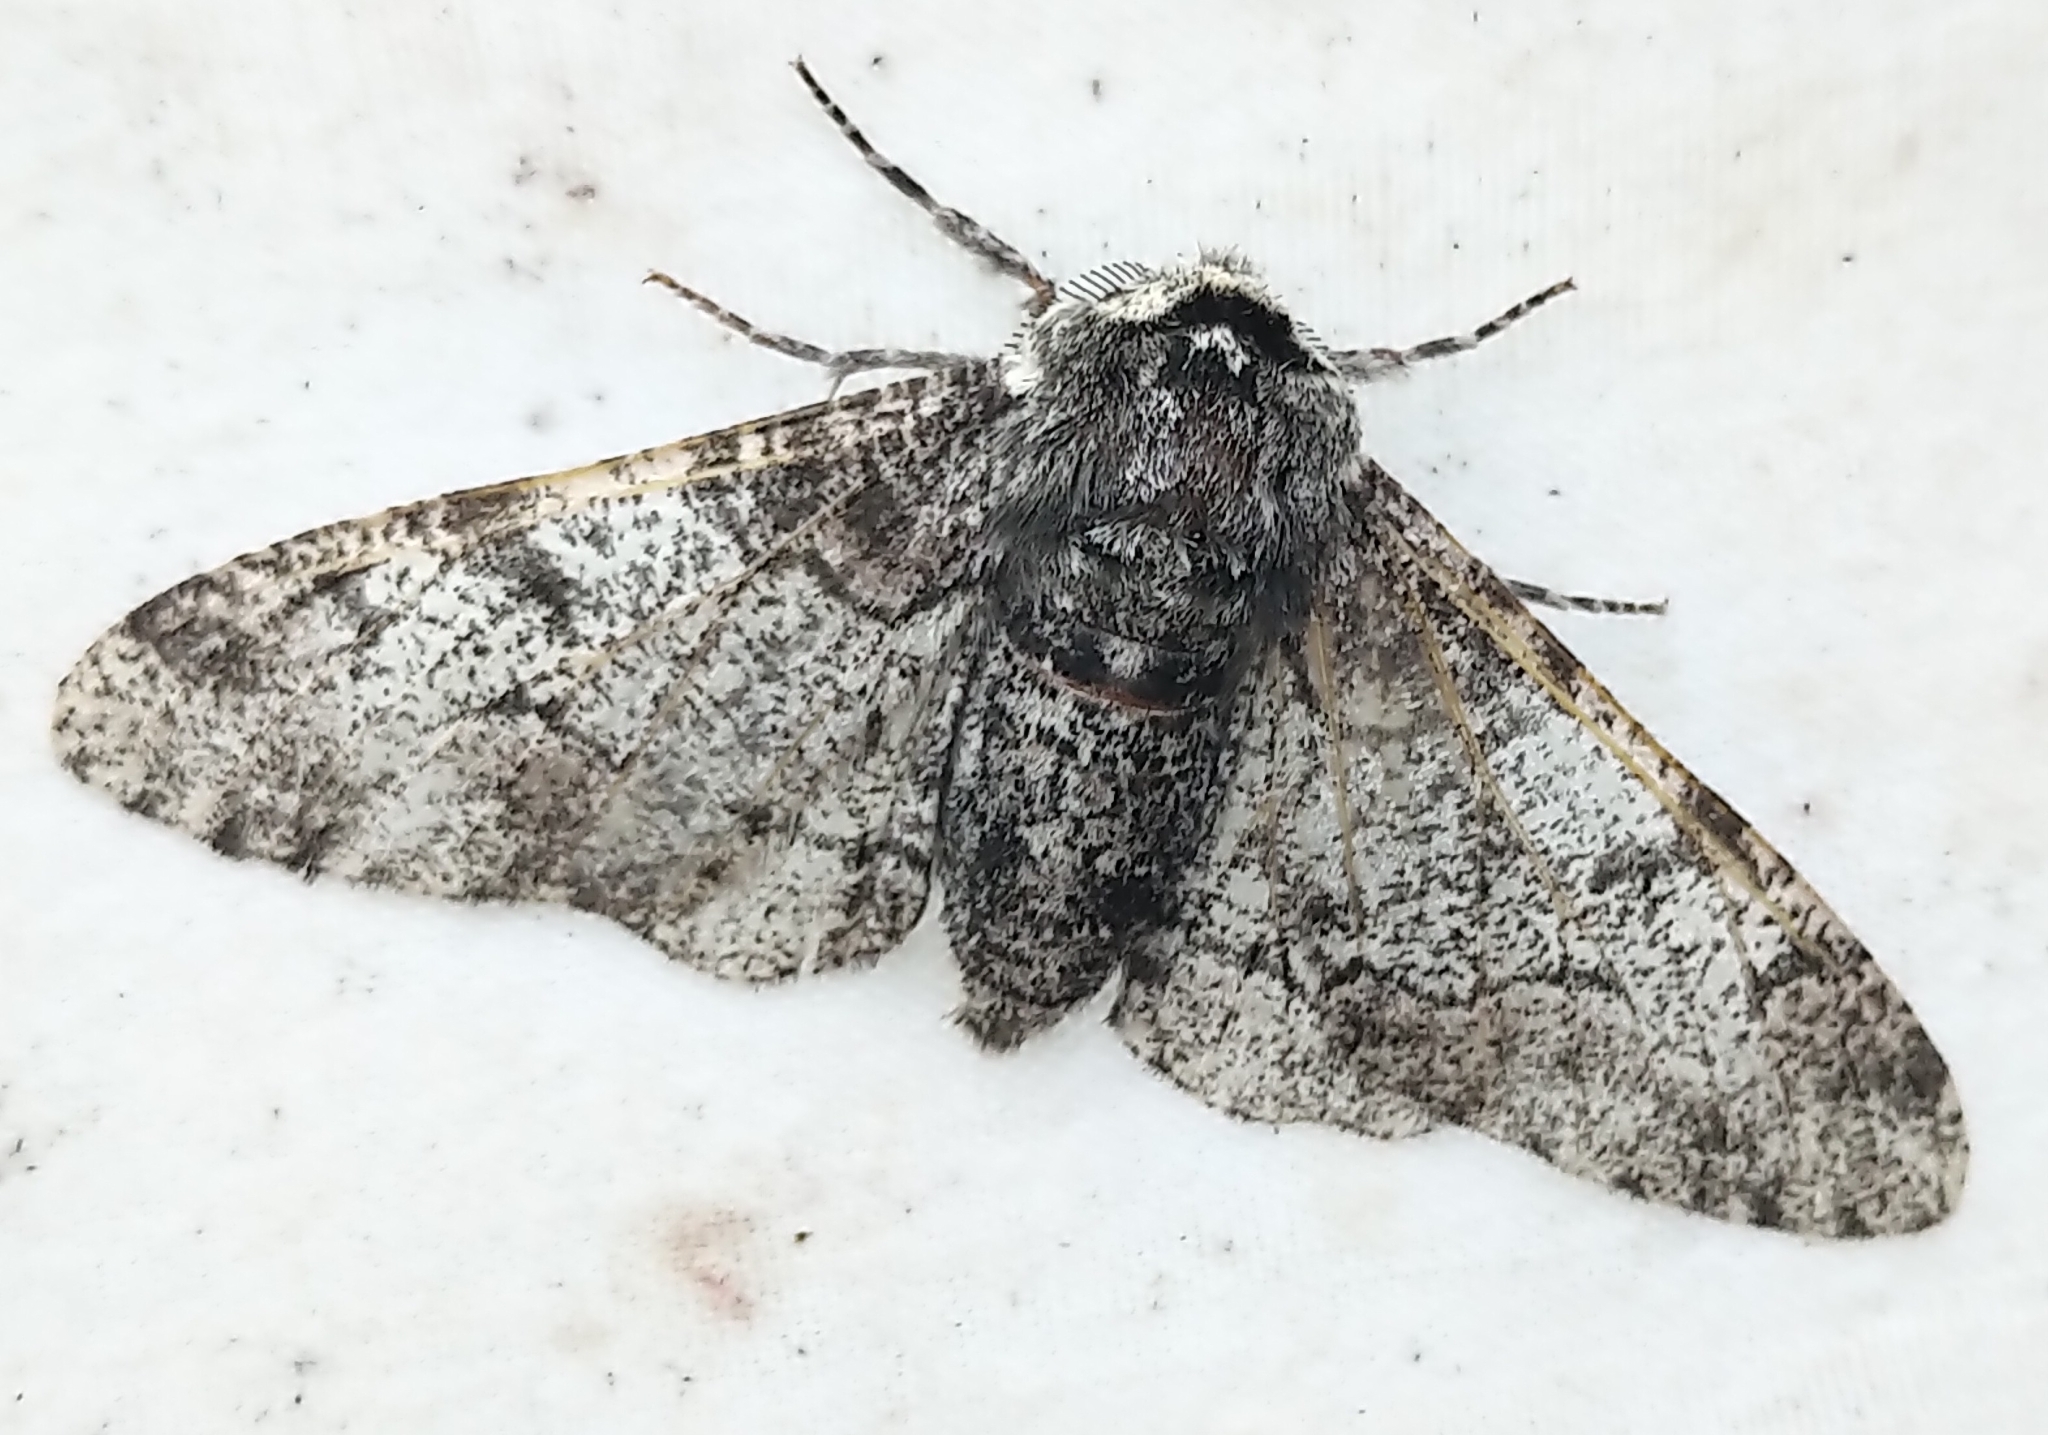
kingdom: Animalia
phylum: Arthropoda
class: Insecta
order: Lepidoptera
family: Geometridae
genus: Biston
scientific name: Biston betularia
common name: Peppered moth
